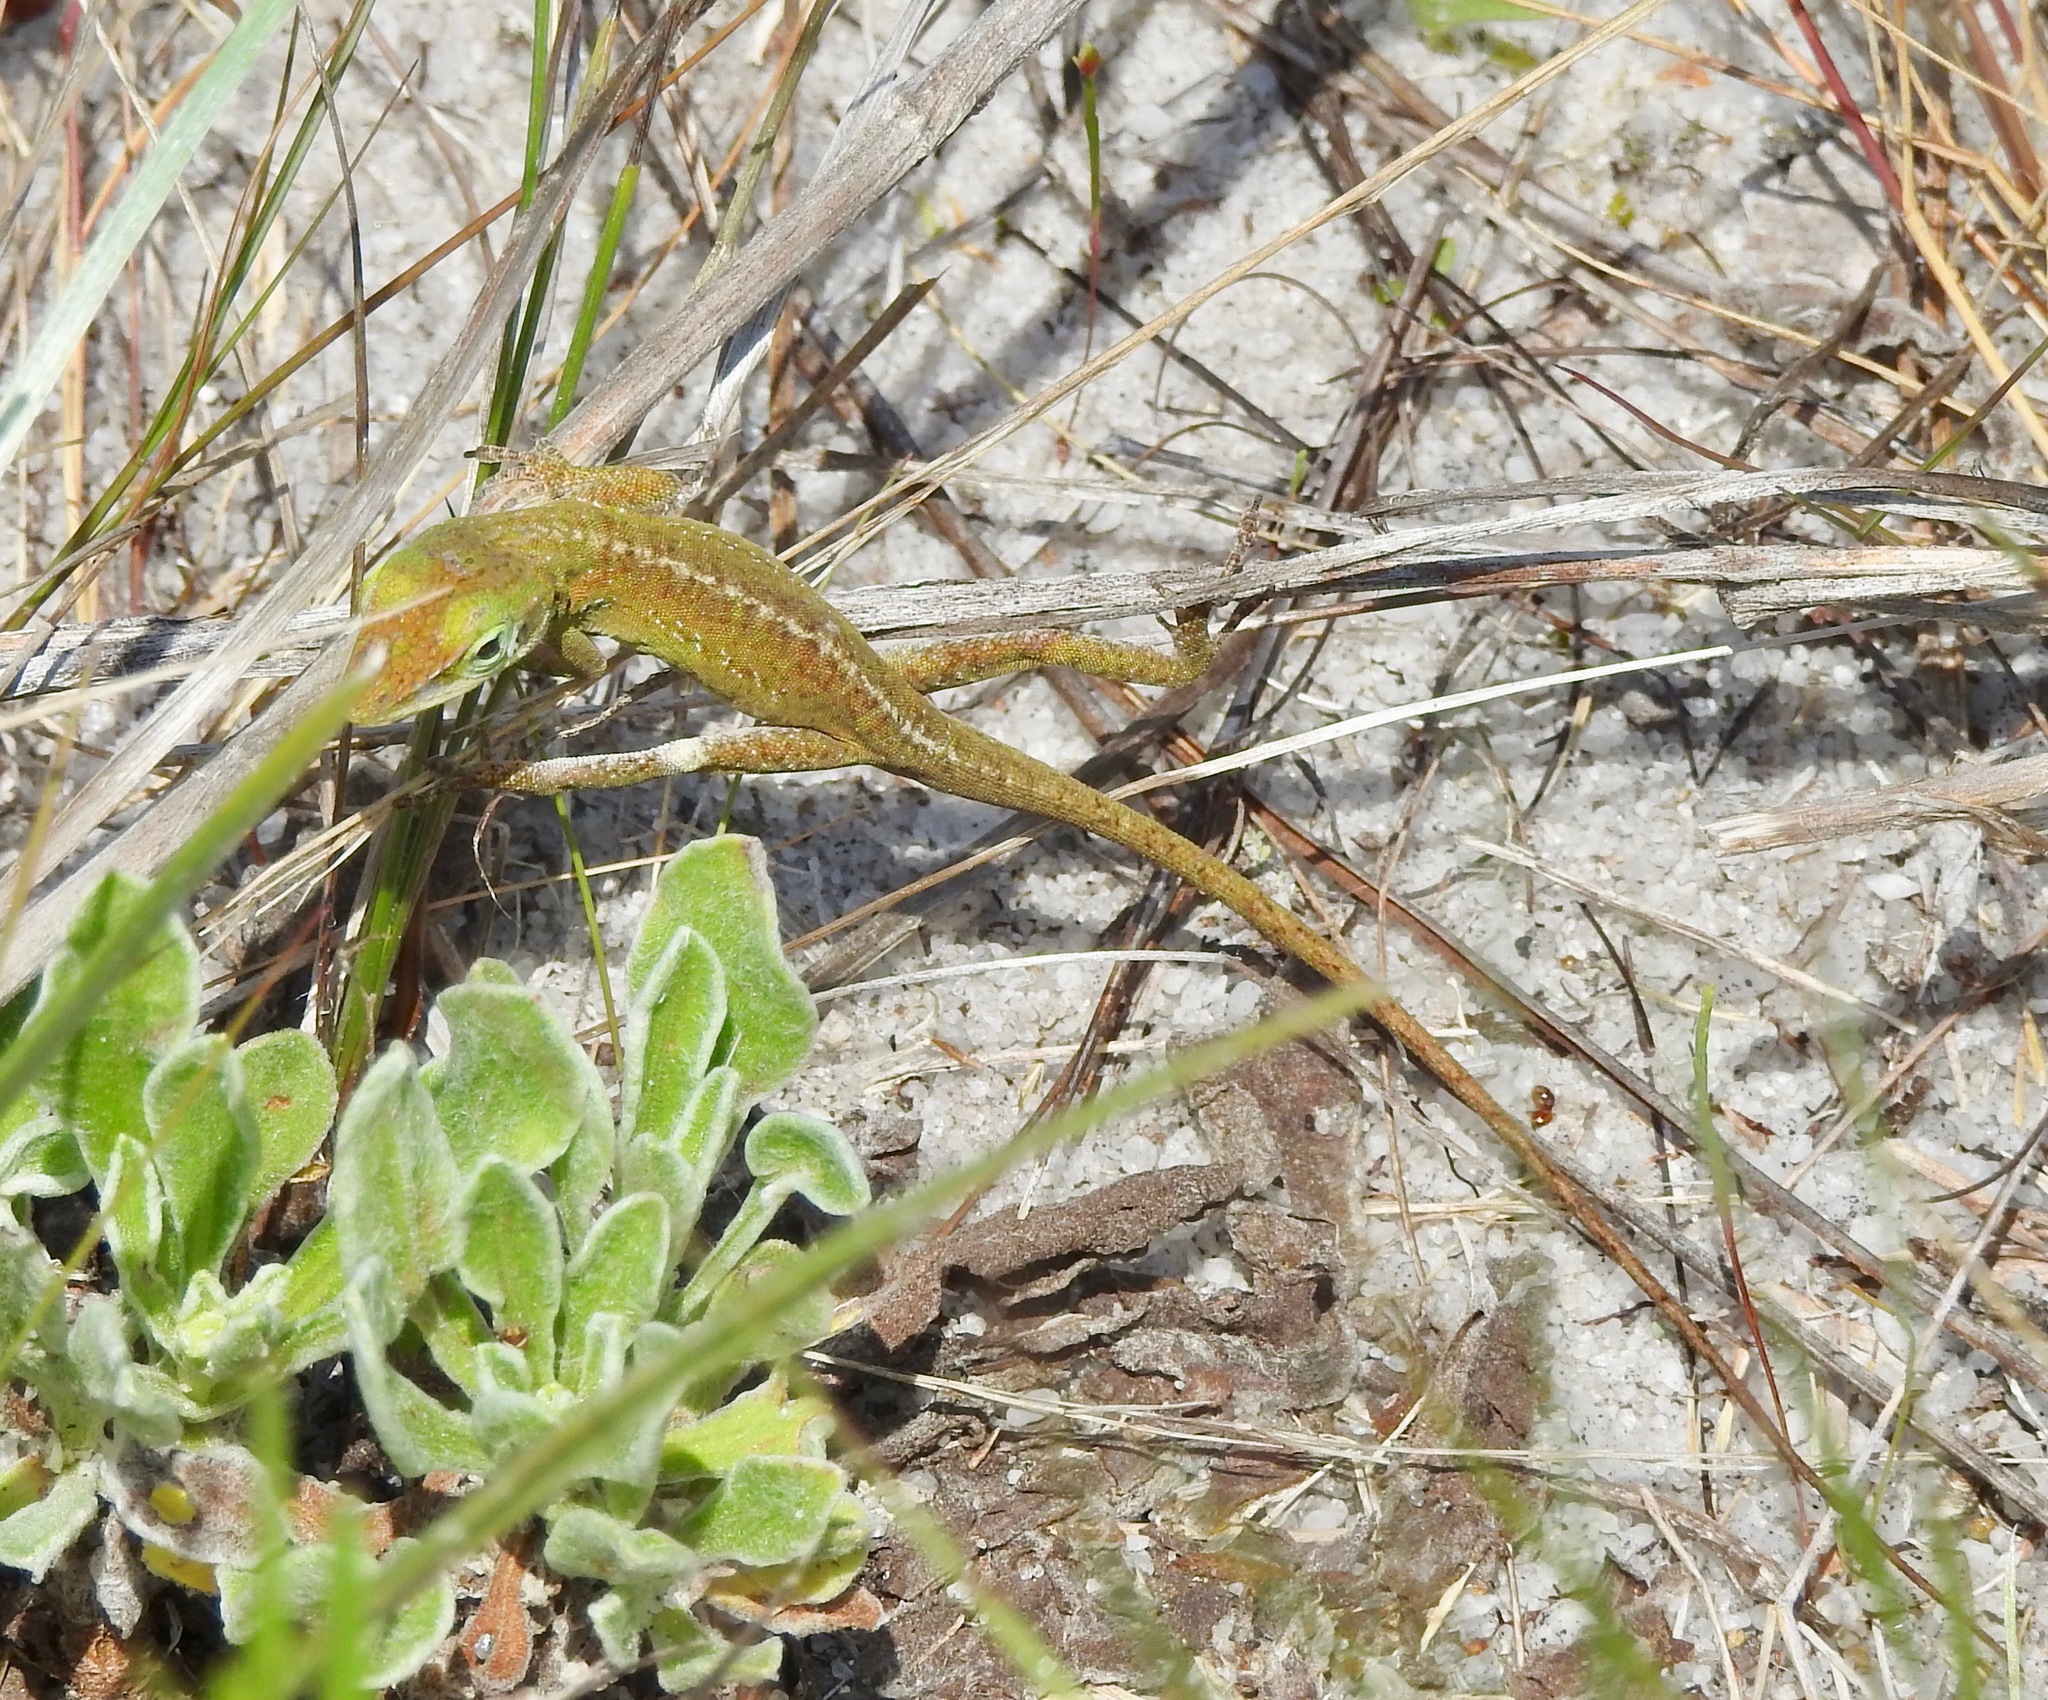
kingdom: Animalia
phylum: Chordata
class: Squamata
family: Dactyloidae
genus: Anolis
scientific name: Anolis carolinensis
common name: Green anole
